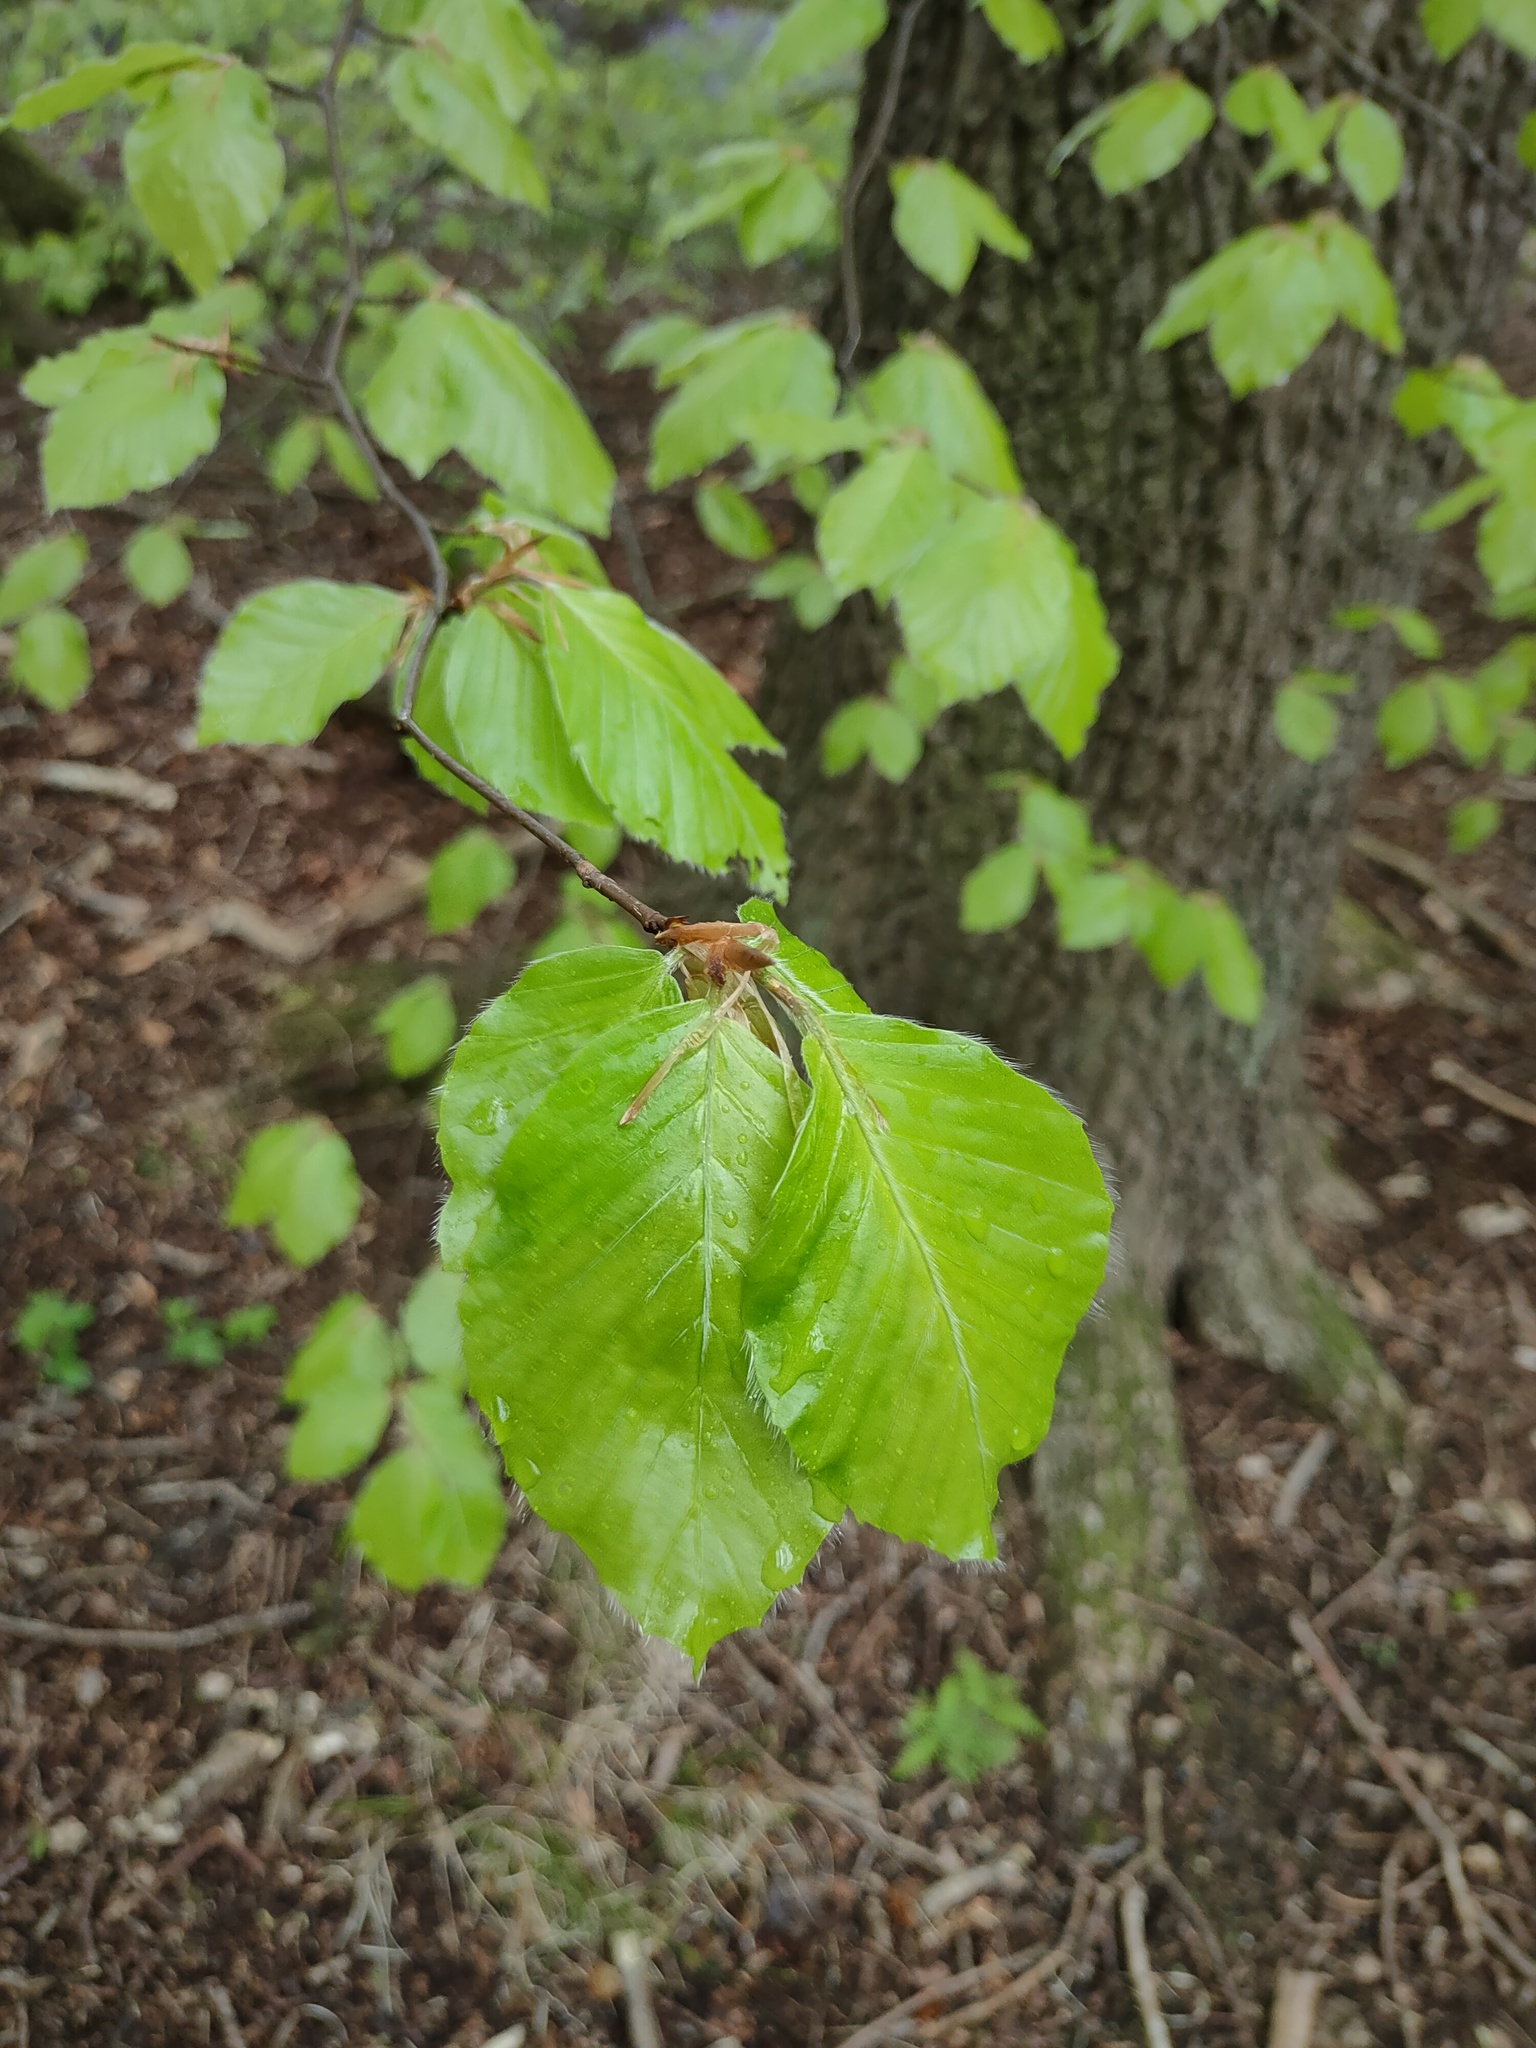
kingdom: Plantae
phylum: Tracheophyta
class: Magnoliopsida
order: Fagales
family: Fagaceae
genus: Fagus
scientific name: Fagus sylvatica
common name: Beech
